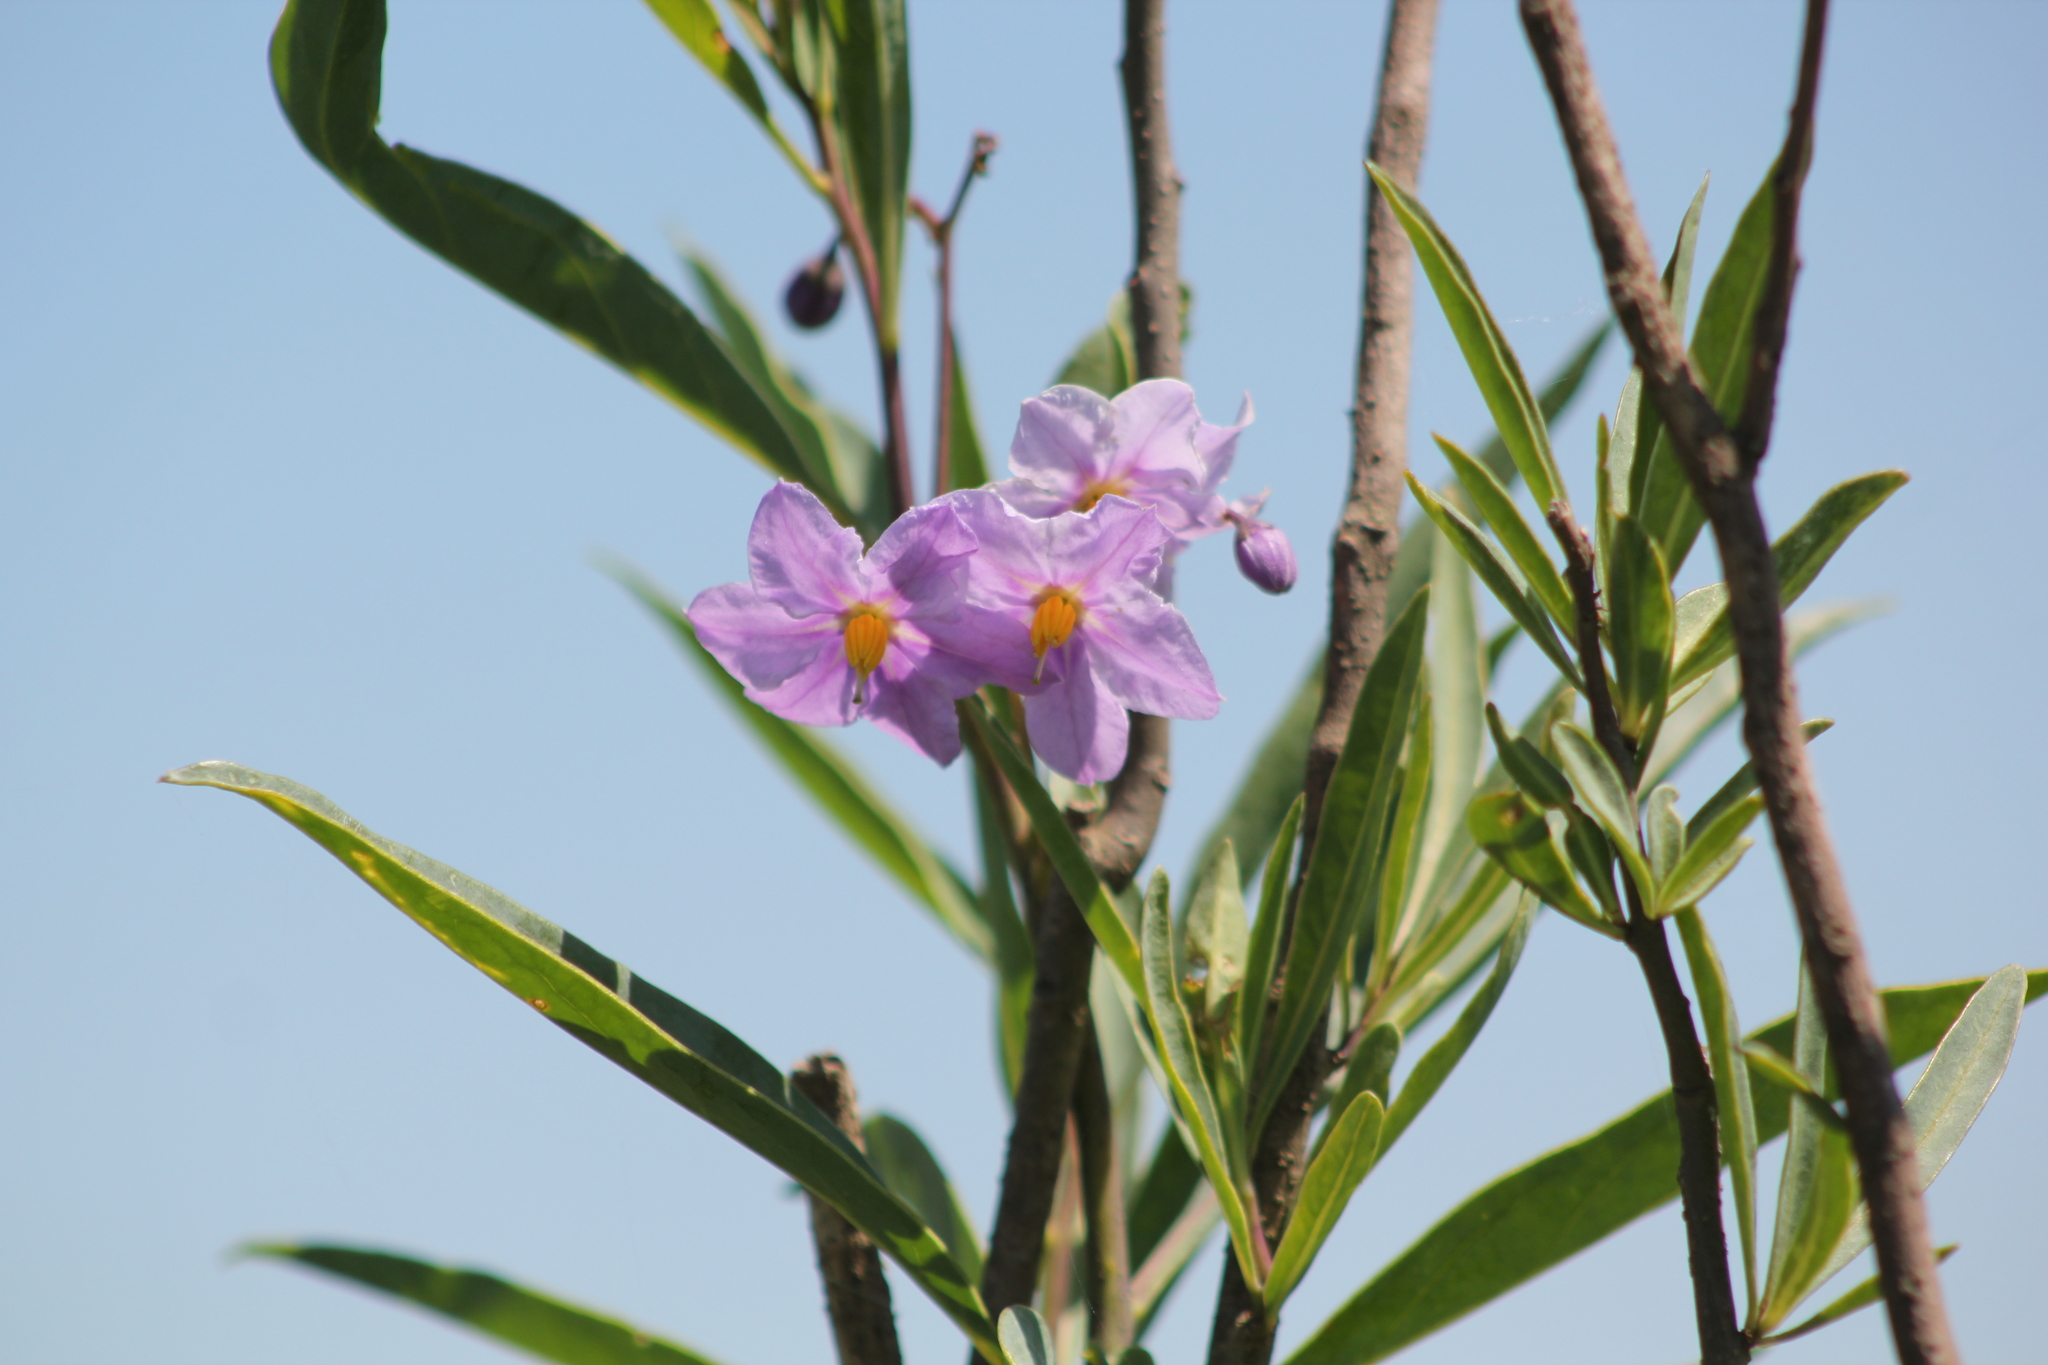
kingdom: Plantae
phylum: Tracheophyta
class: Magnoliopsida
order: Solanales
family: Solanaceae
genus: Solanum
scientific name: Solanum glaucophyllum
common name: Waxyleaf nightshade
